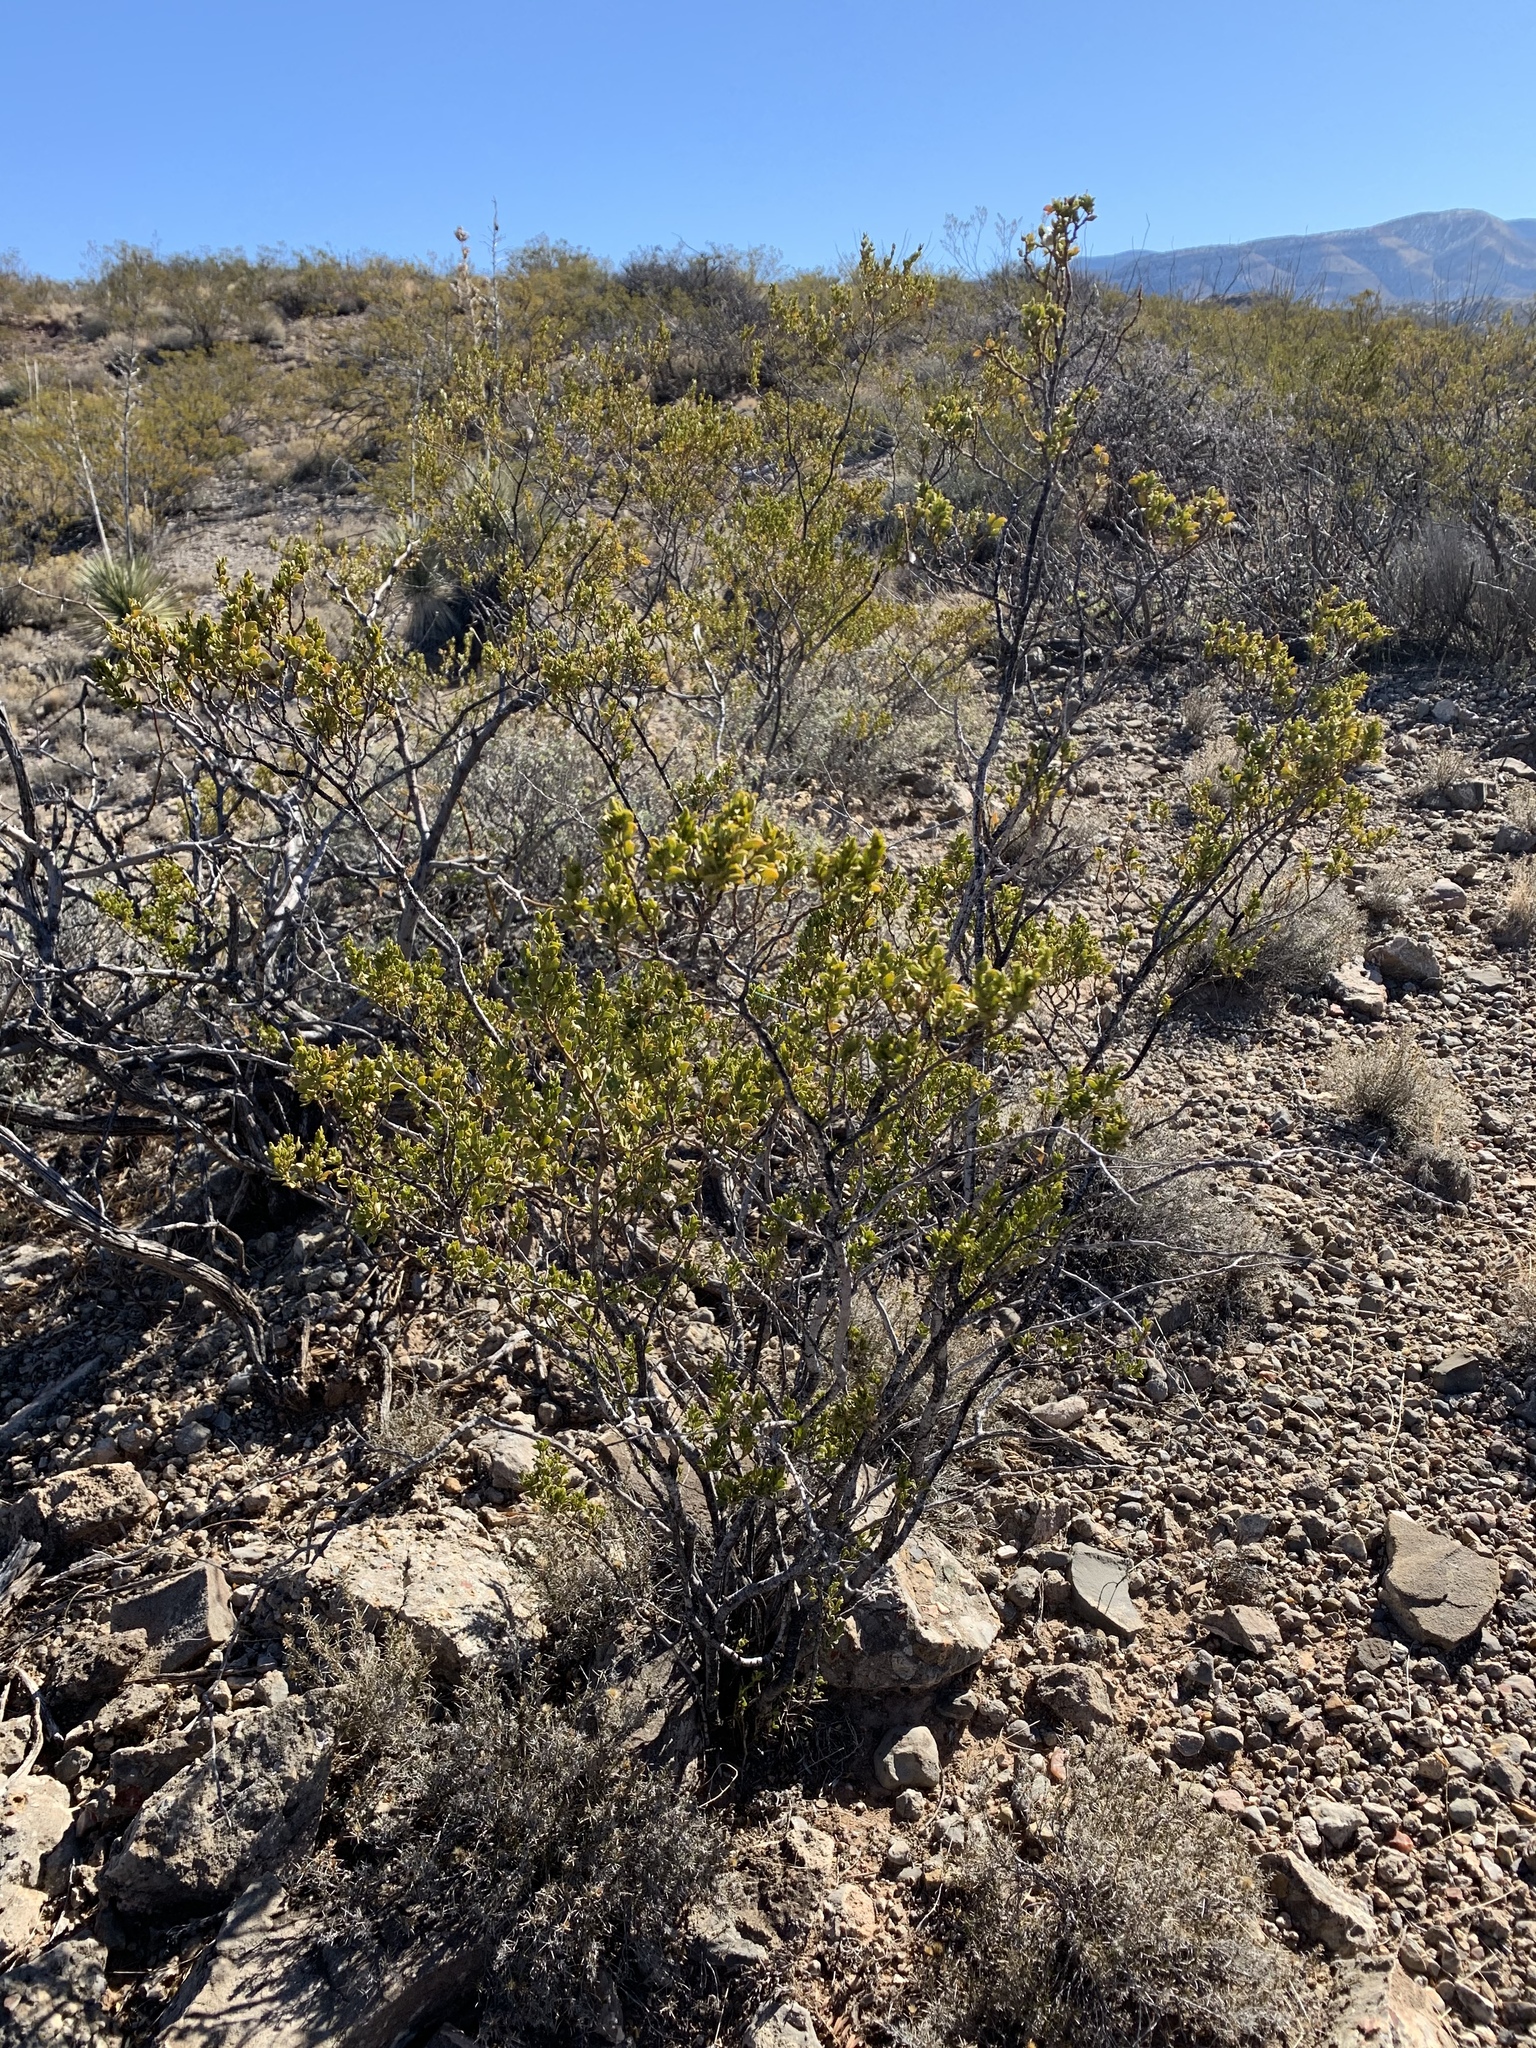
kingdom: Plantae
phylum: Tracheophyta
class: Magnoliopsida
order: Zygophyllales
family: Zygophyllaceae
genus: Larrea
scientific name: Larrea tridentata
